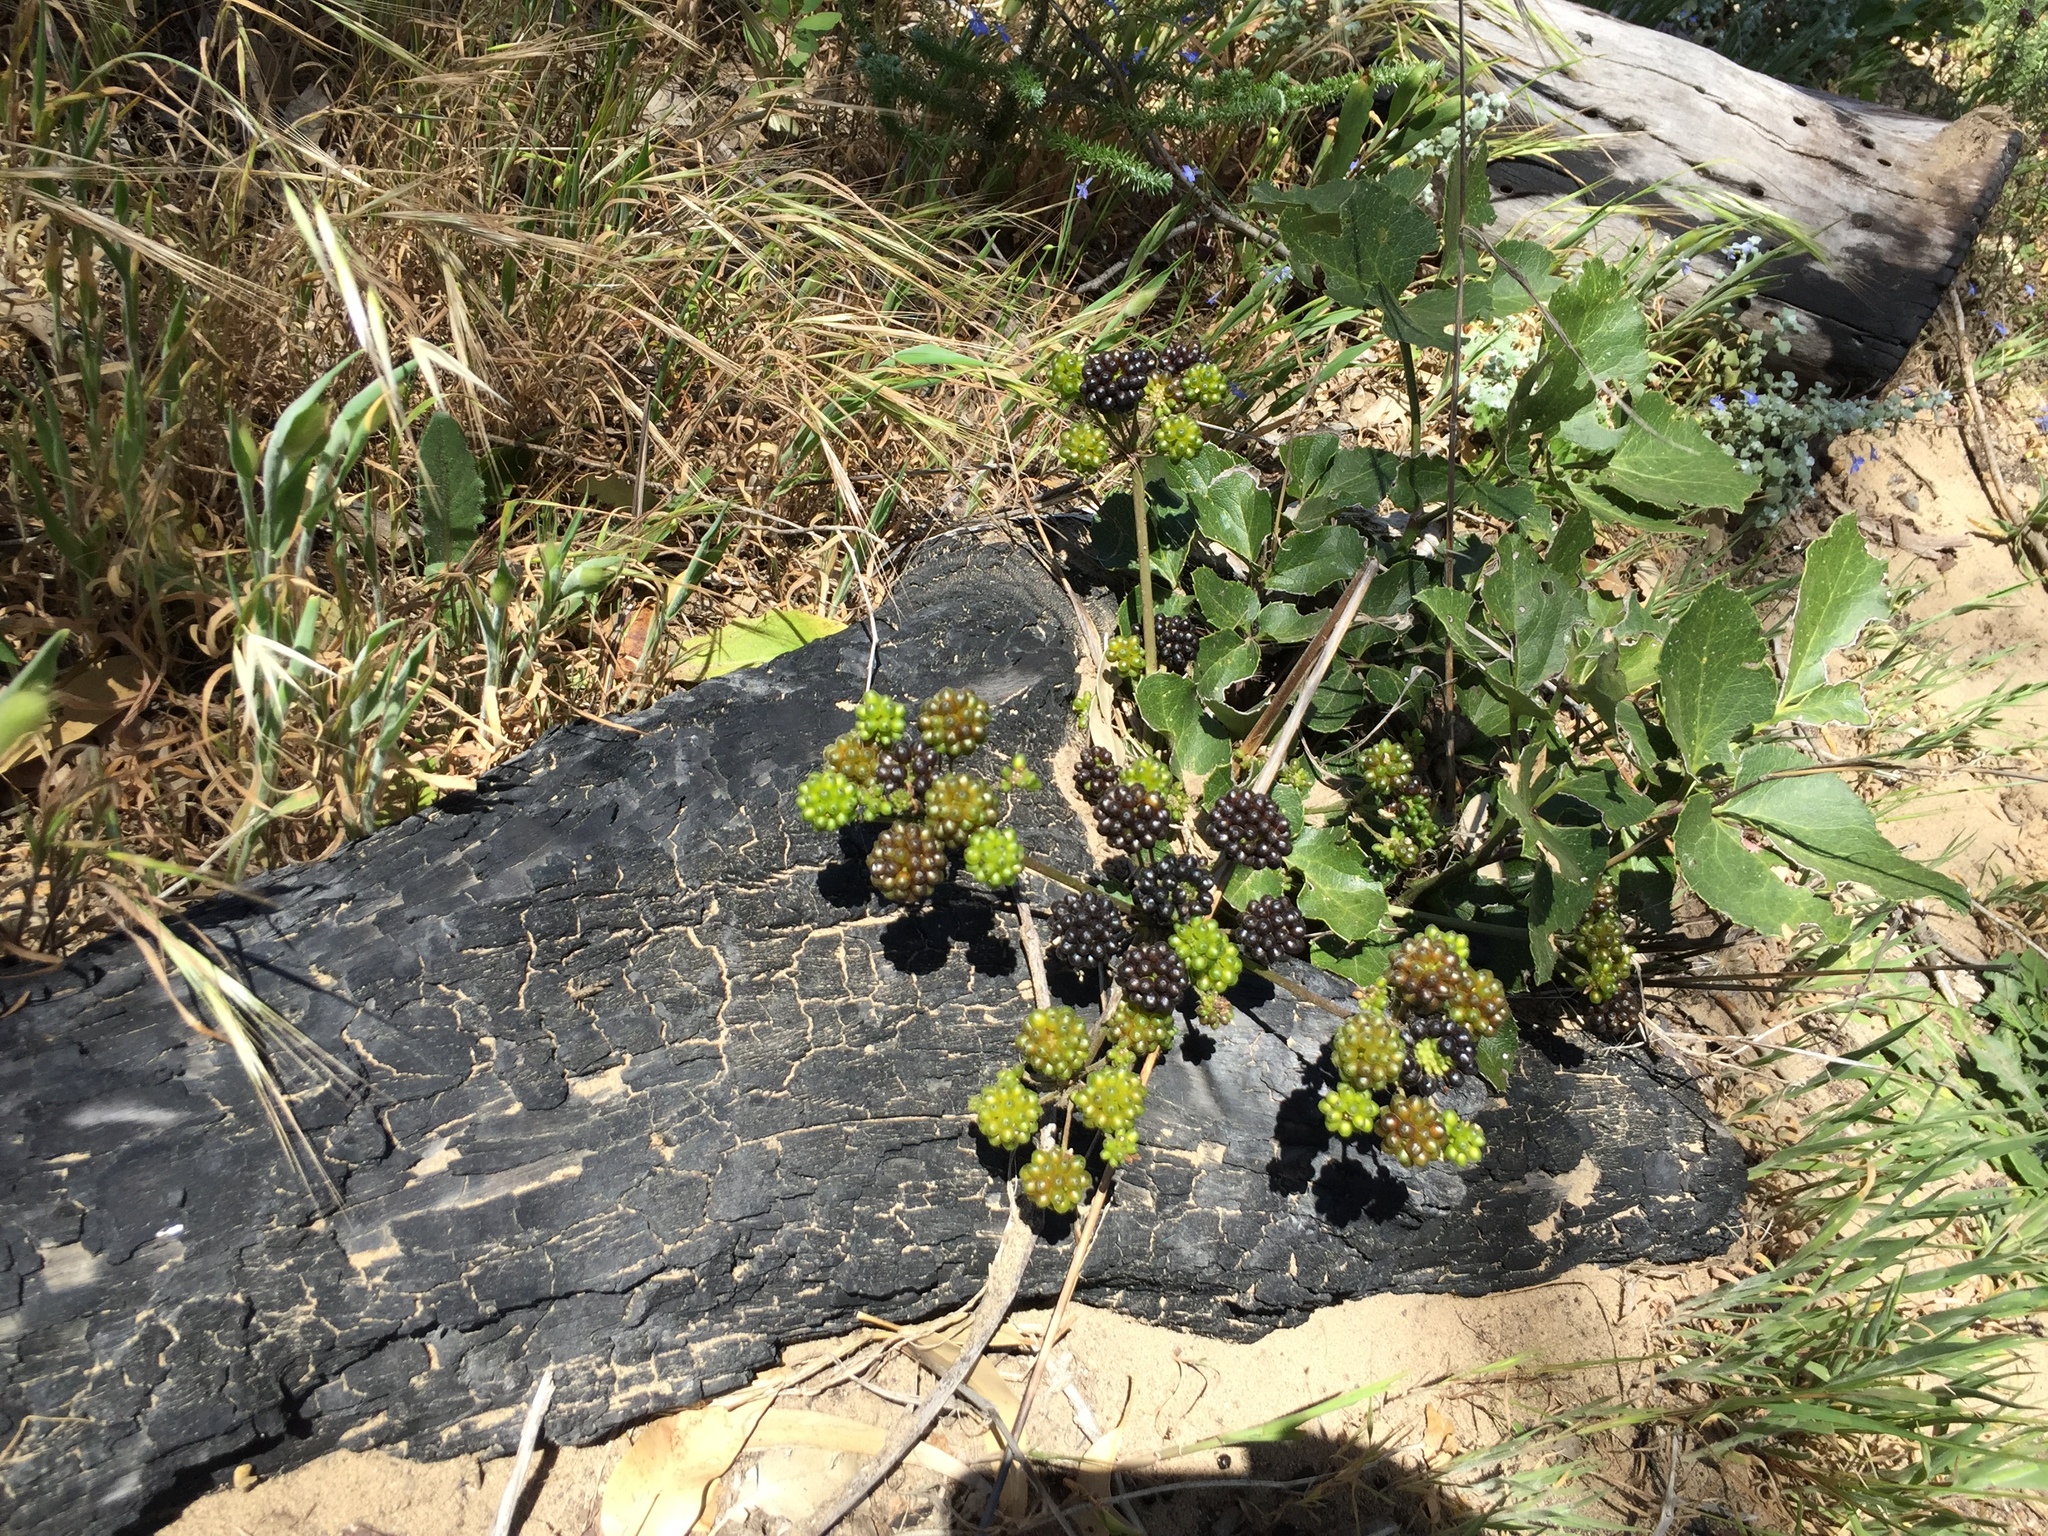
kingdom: Plantae
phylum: Tracheophyta
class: Magnoliopsida
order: Ranunculales
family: Ranunculaceae
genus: Knowltonia
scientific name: Knowltonia vesicatoria
